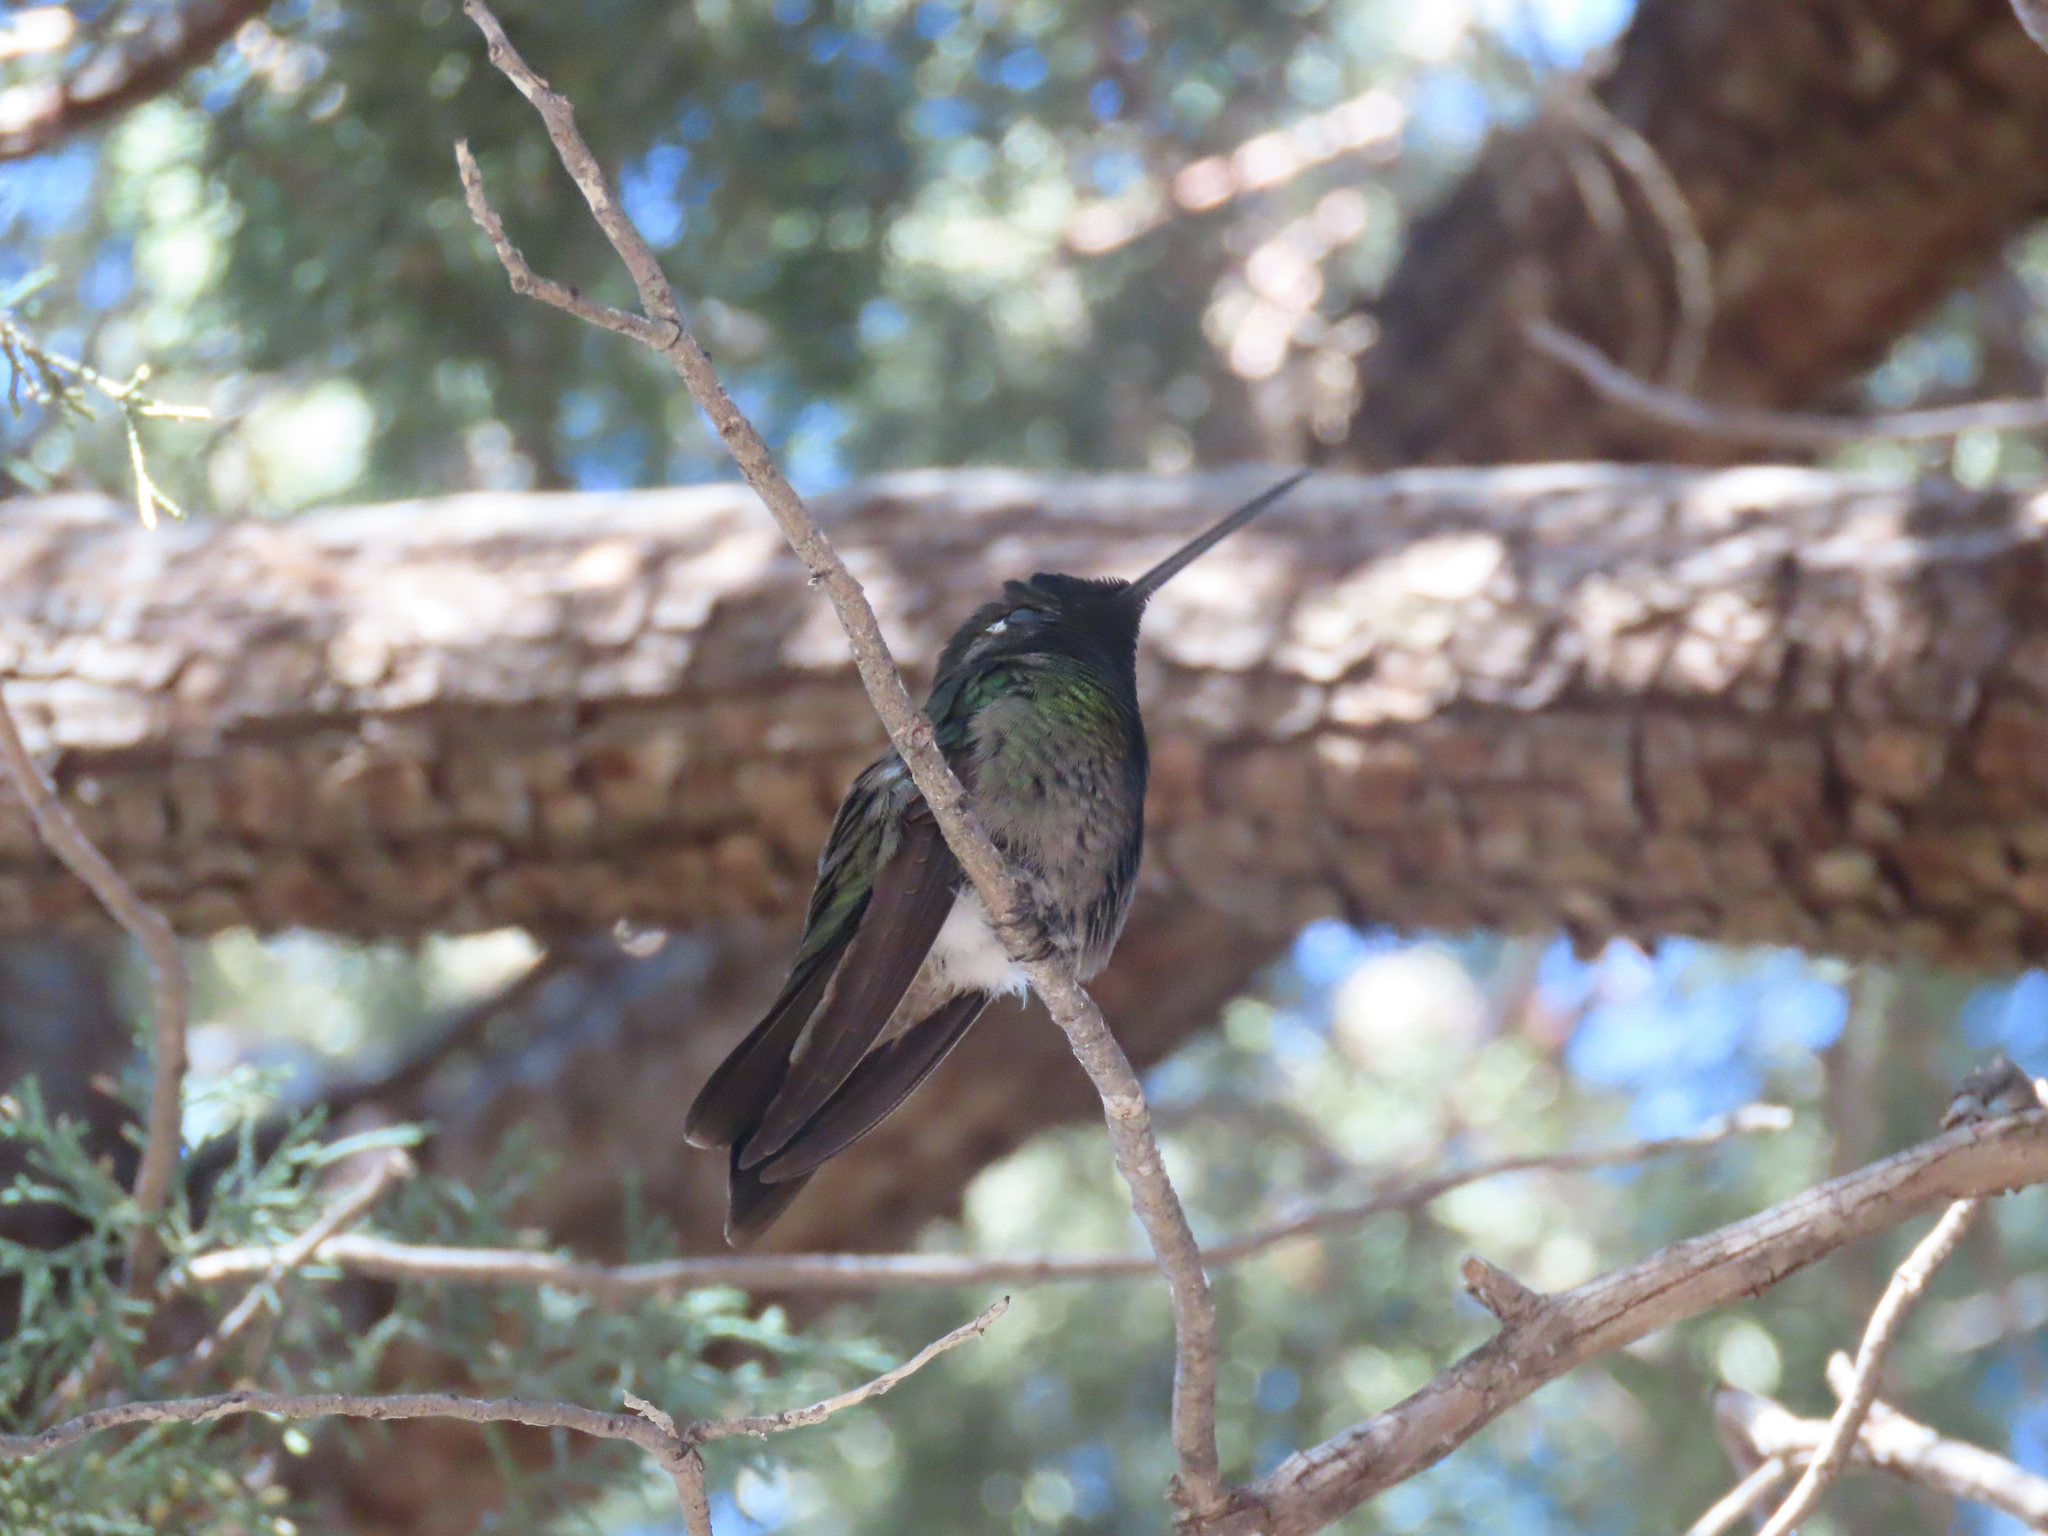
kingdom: Animalia
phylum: Chordata
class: Aves
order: Apodiformes
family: Trochilidae
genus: Eugenes
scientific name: Eugenes fulgens
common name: Magnificent hummingbird
